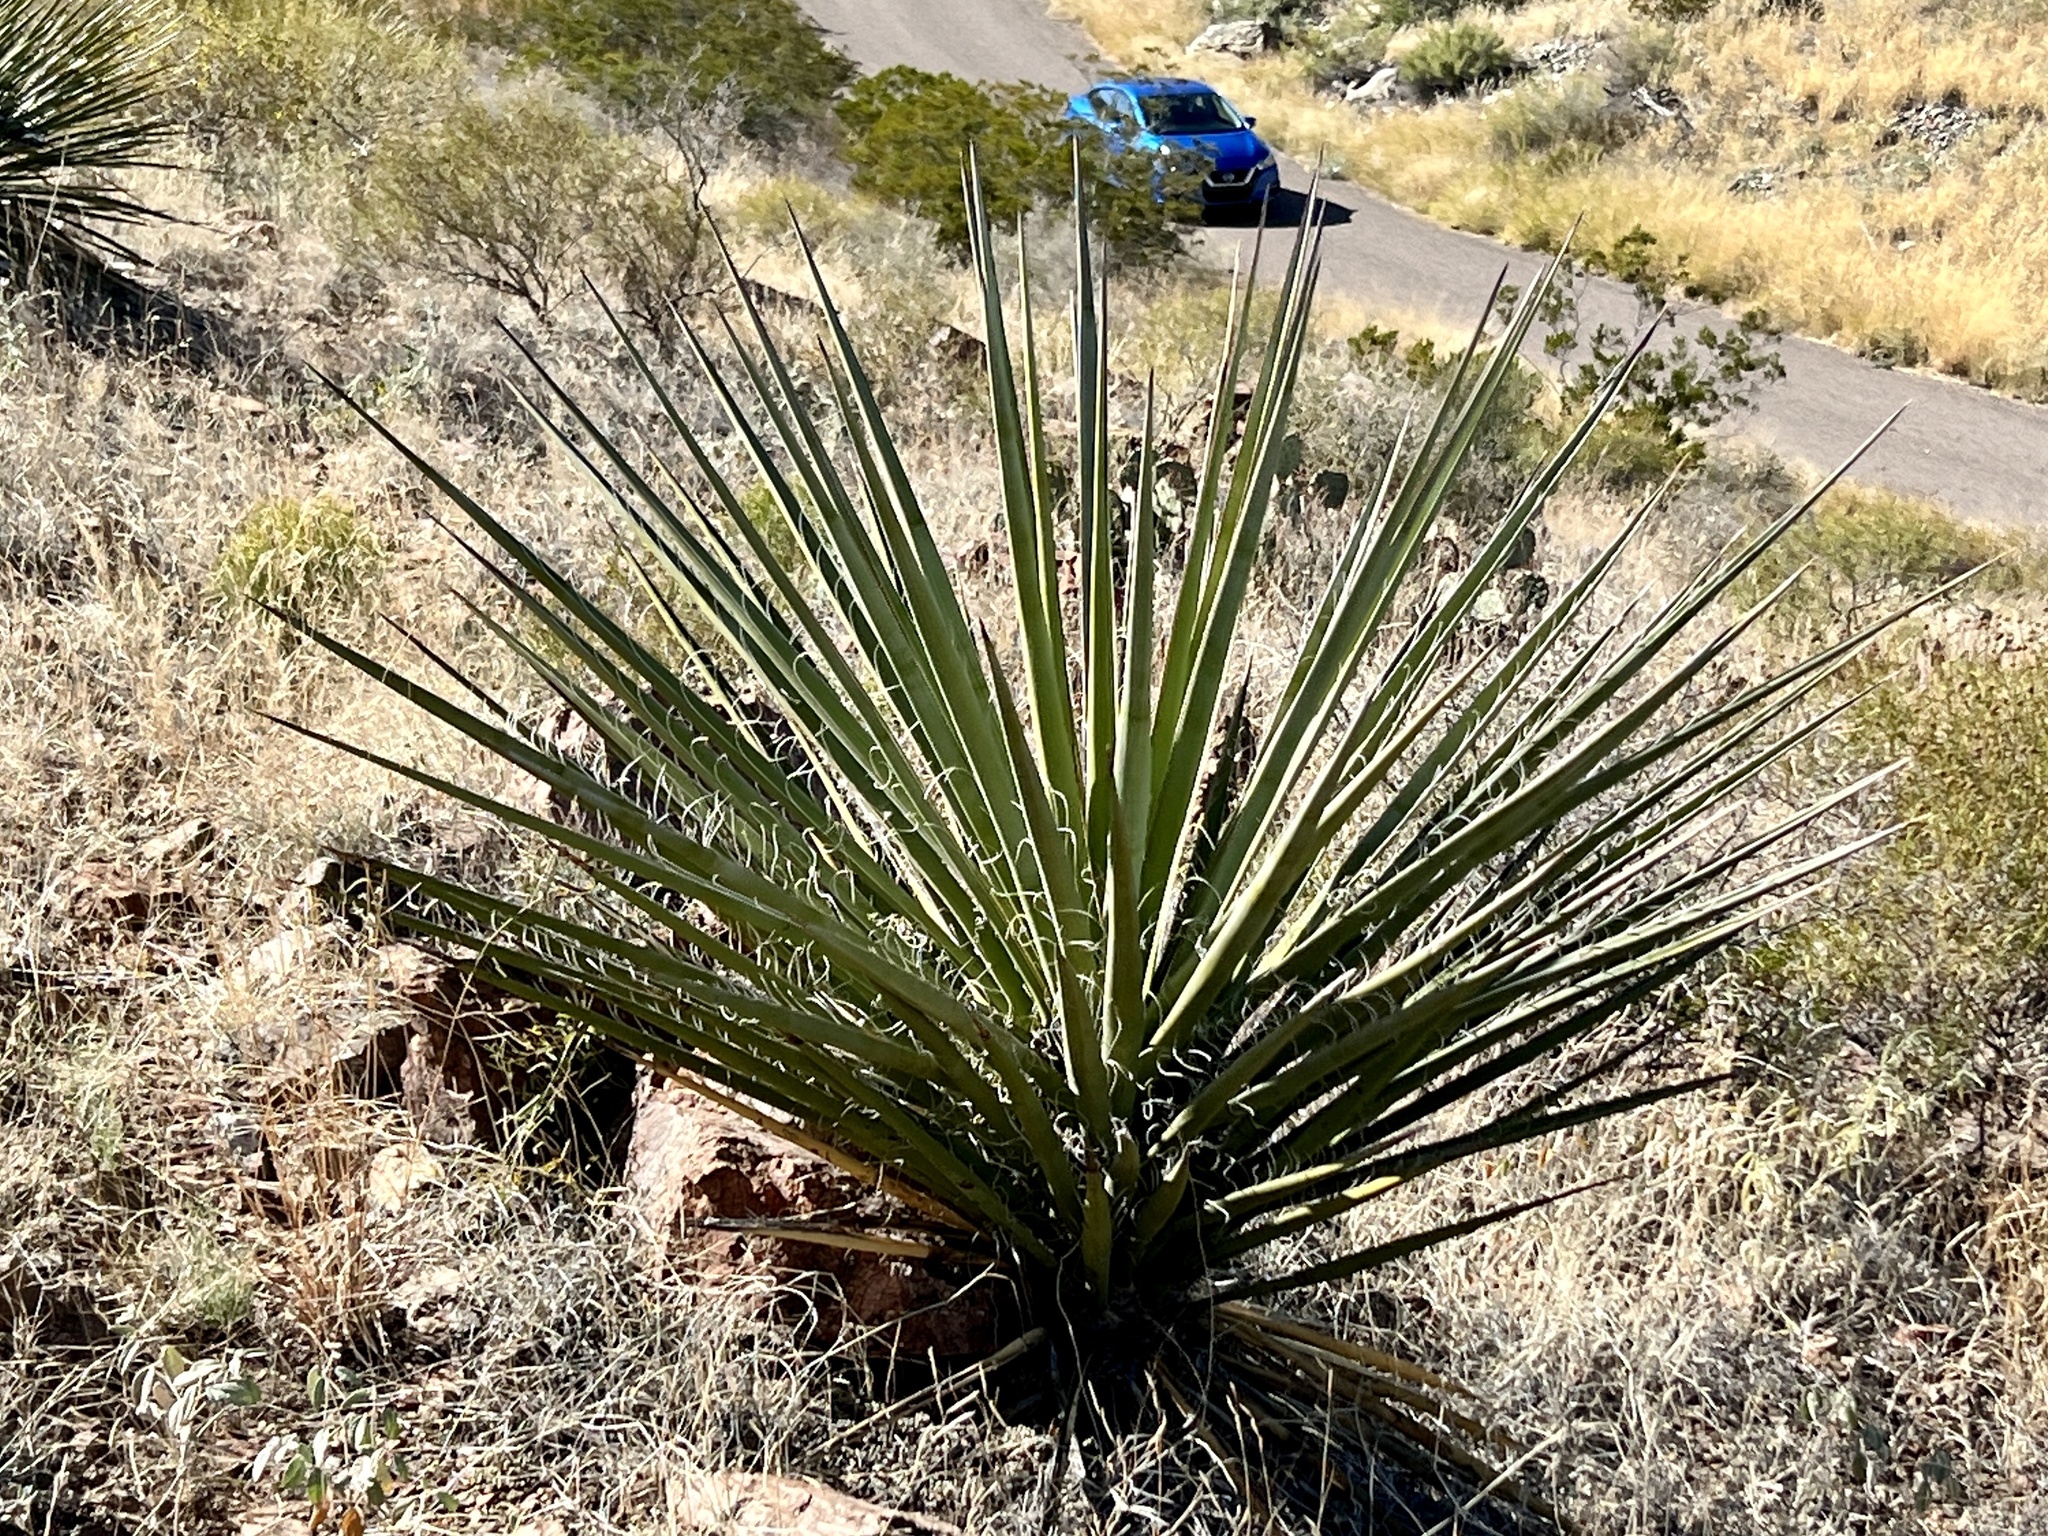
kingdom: Plantae
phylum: Tracheophyta
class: Liliopsida
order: Asparagales
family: Asparagaceae
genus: Yucca
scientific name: Yucca treculiana
